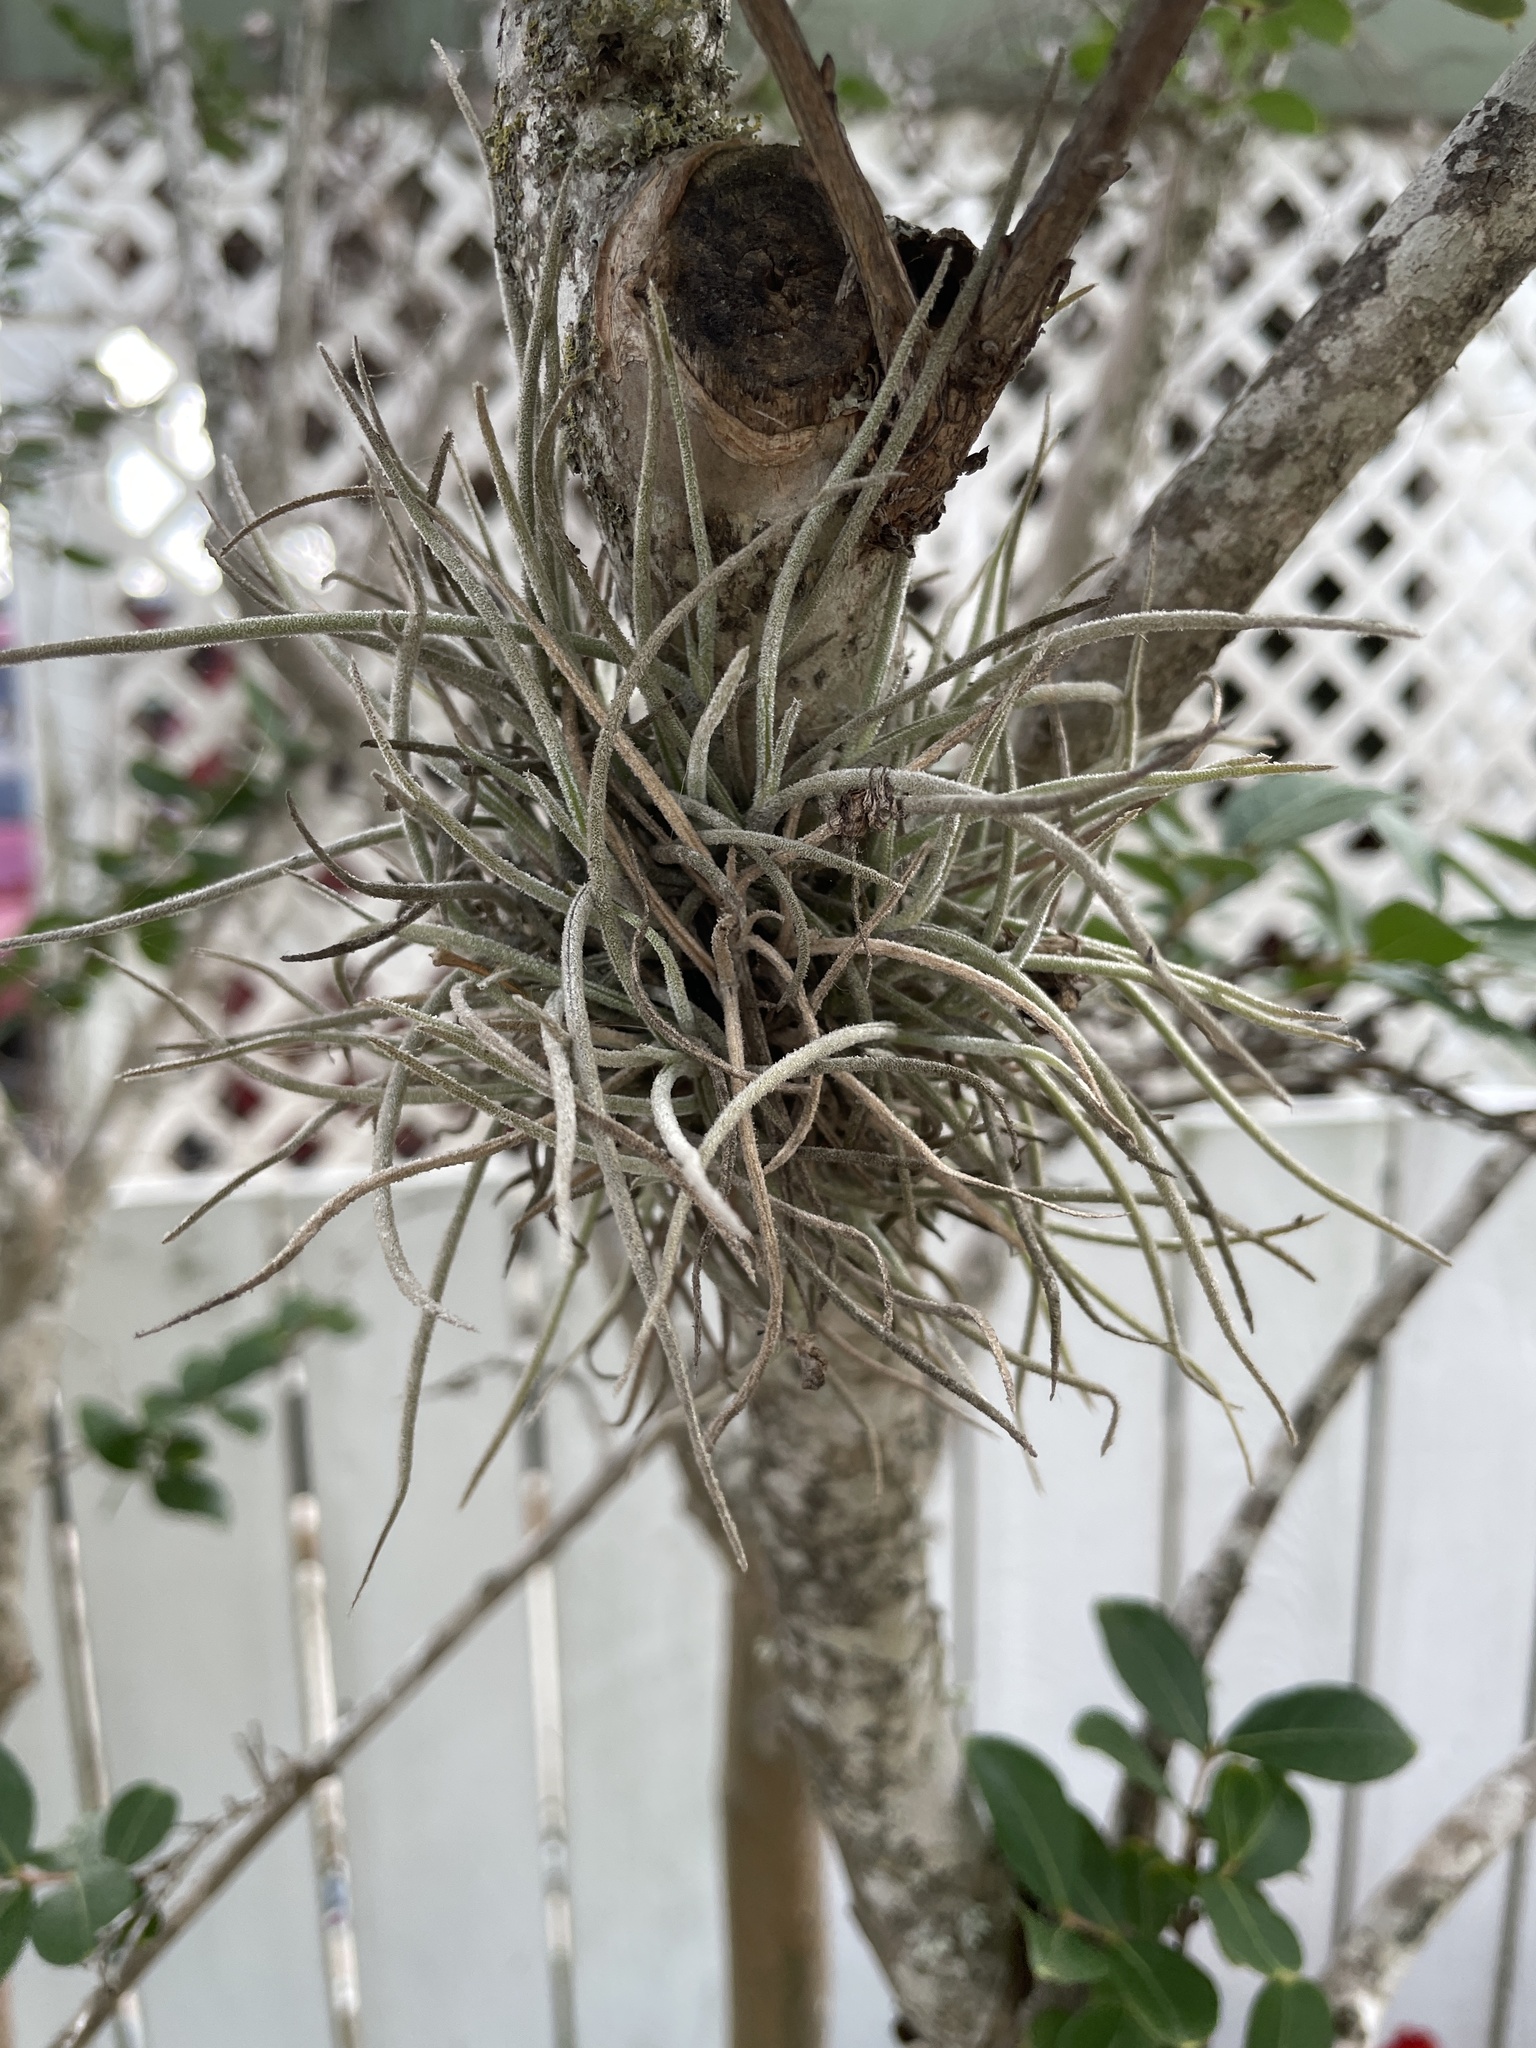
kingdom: Plantae
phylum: Tracheophyta
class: Liliopsida
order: Poales
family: Bromeliaceae
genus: Tillandsia
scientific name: Tillandsia recurvata
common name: Small ballmoss
